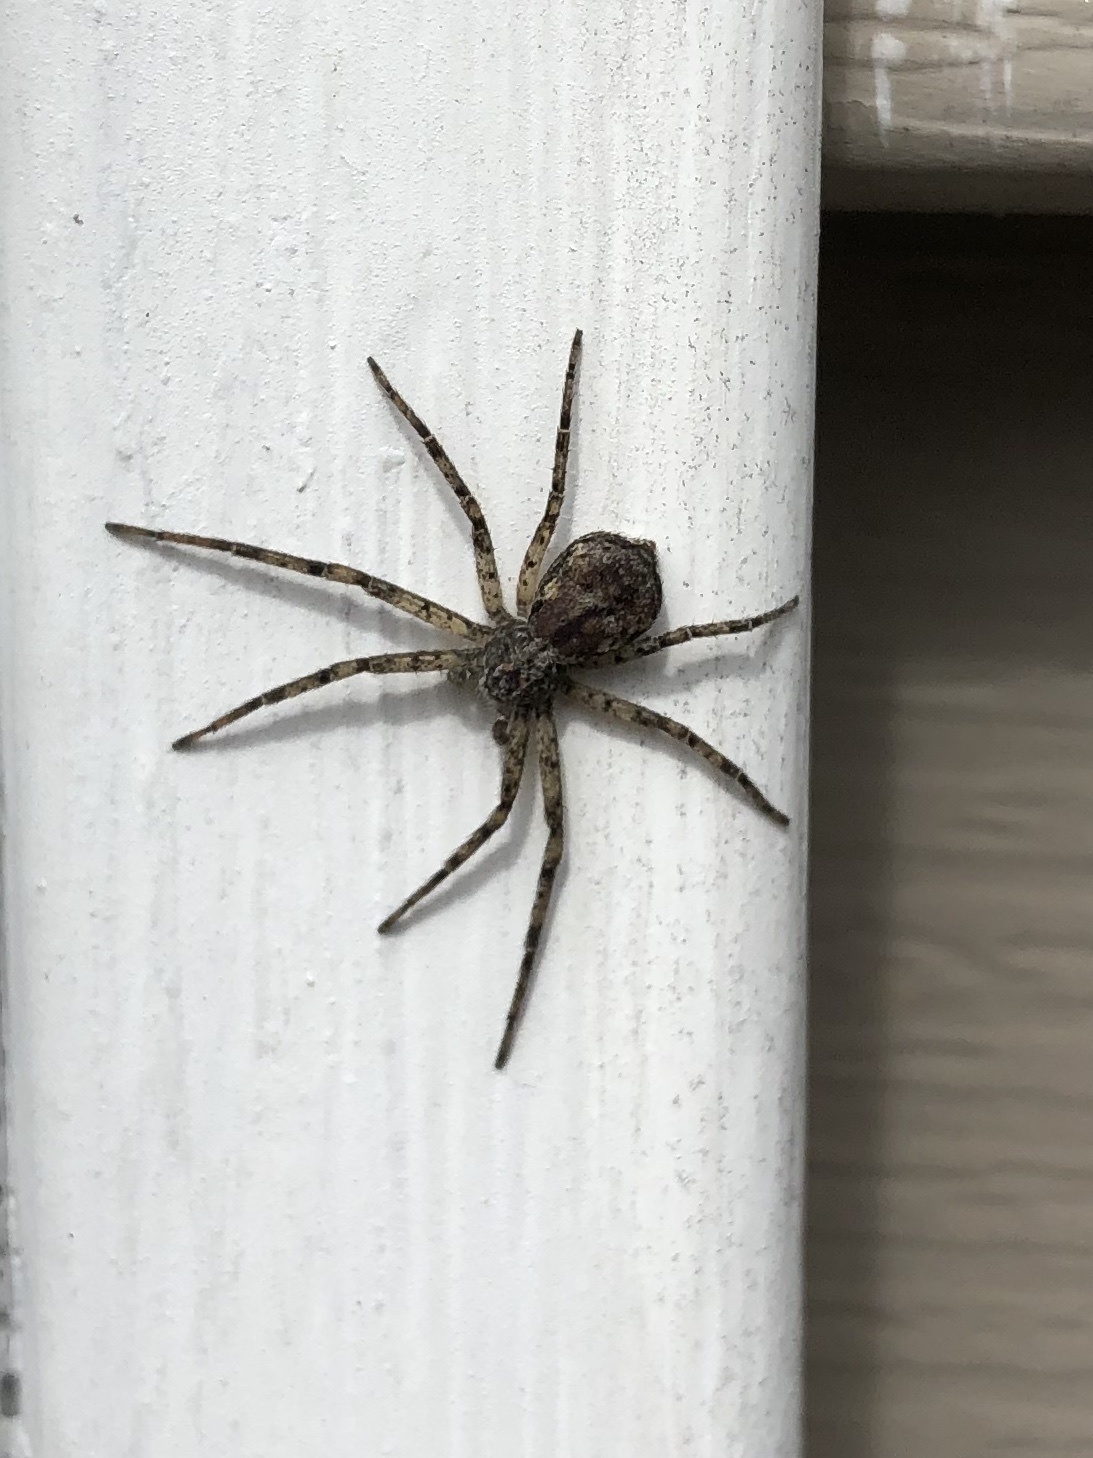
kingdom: Animalia
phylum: Arthropoda
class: Arachnida
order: Araneae
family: Philodromidae
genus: Philodromus
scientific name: Philodromus
